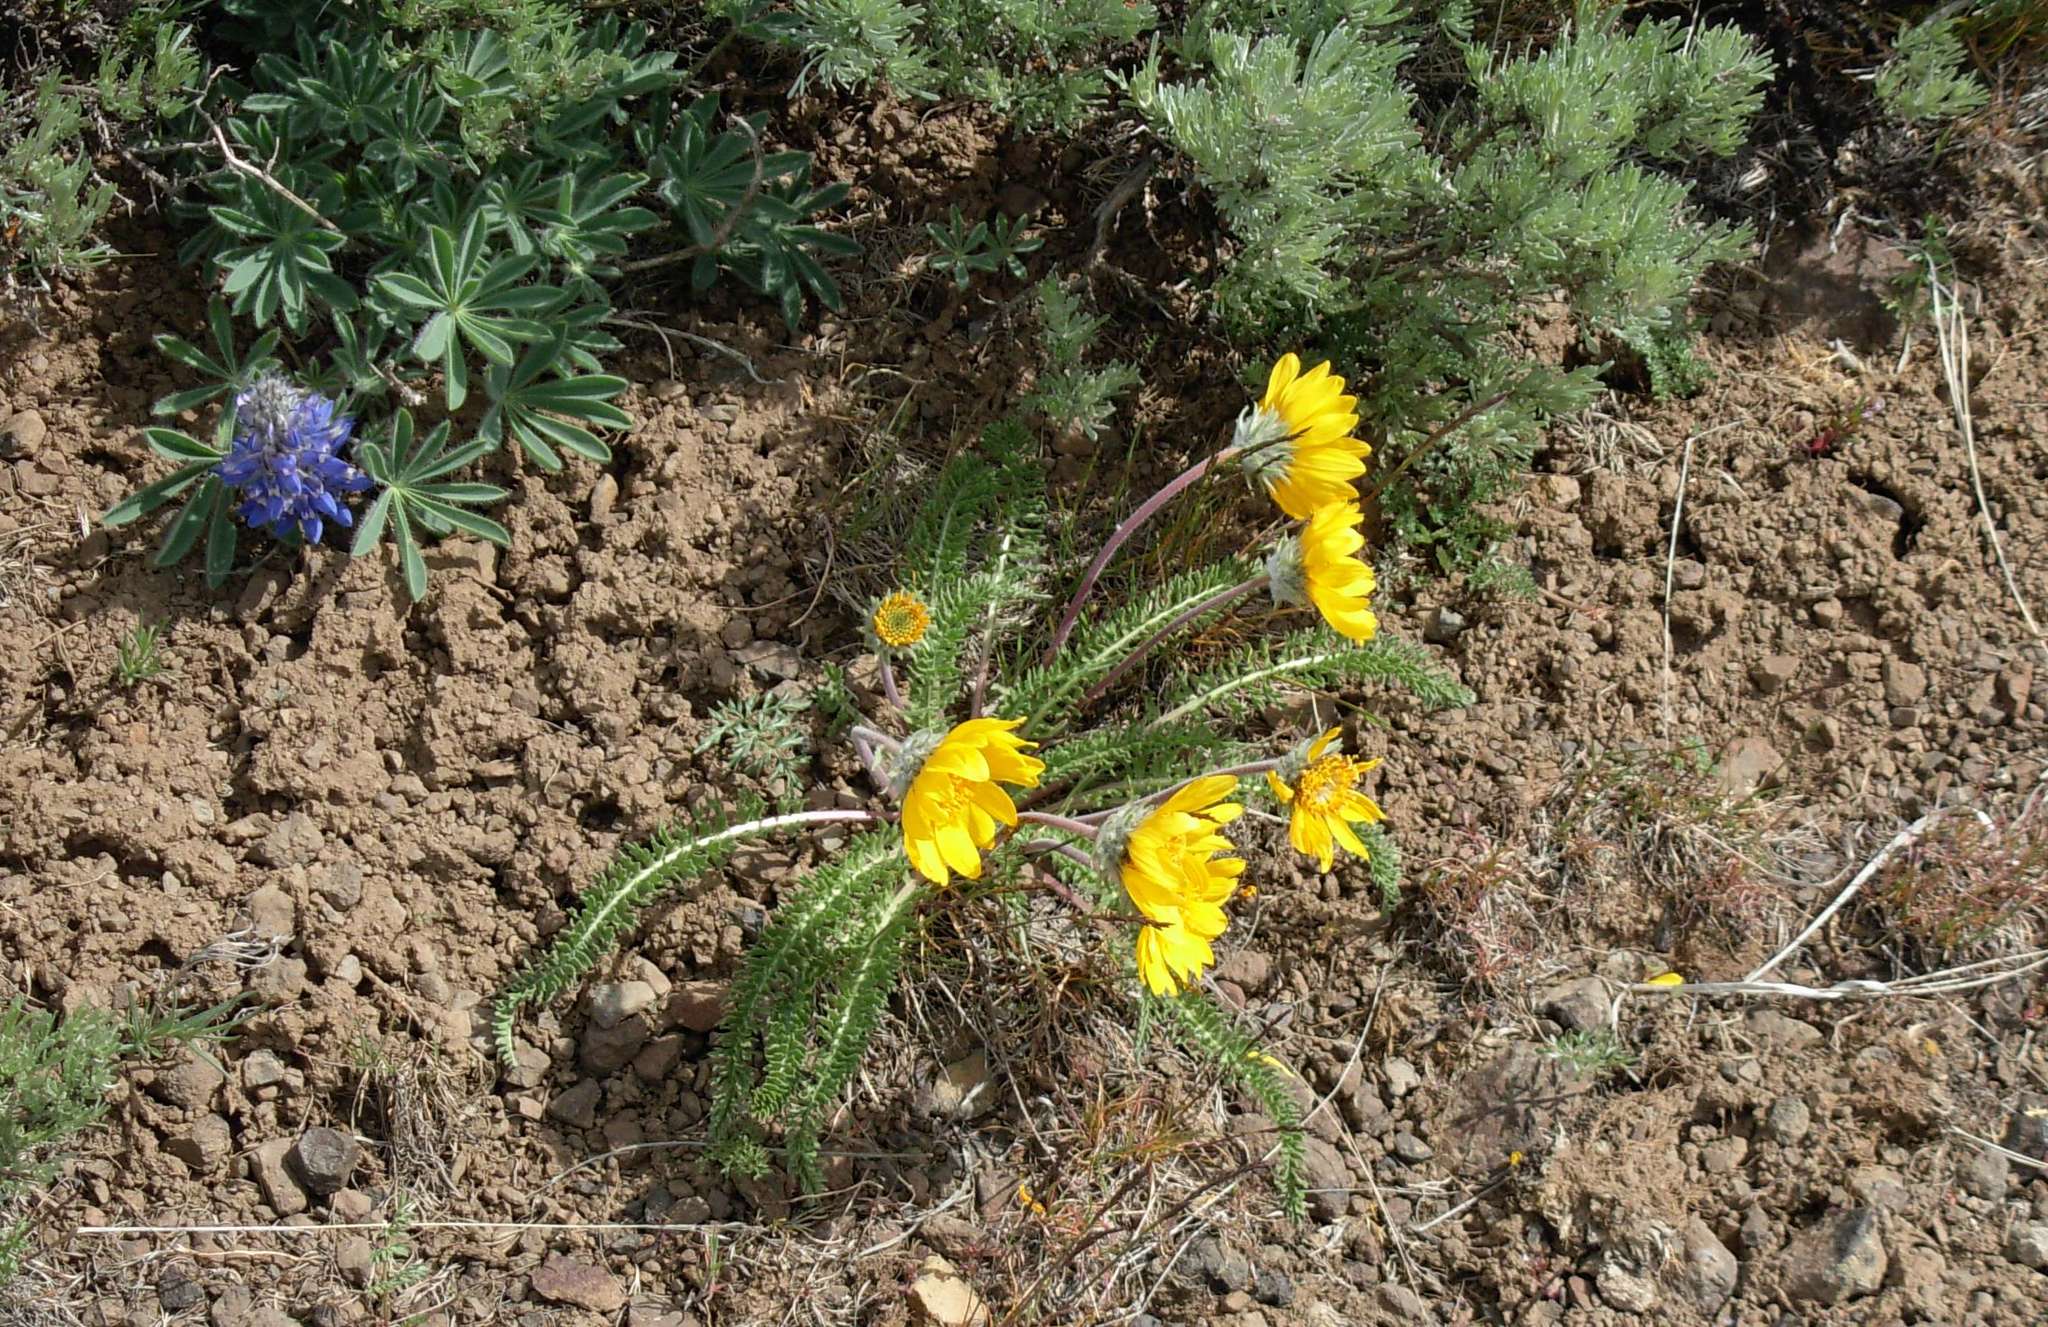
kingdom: Plantae
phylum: Tracheophyta
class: Magnoliopsida
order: Asterales
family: Asteraceae
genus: Balsamorhiza
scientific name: Balsamorhiza hookeri
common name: Hooker's balsamroot
